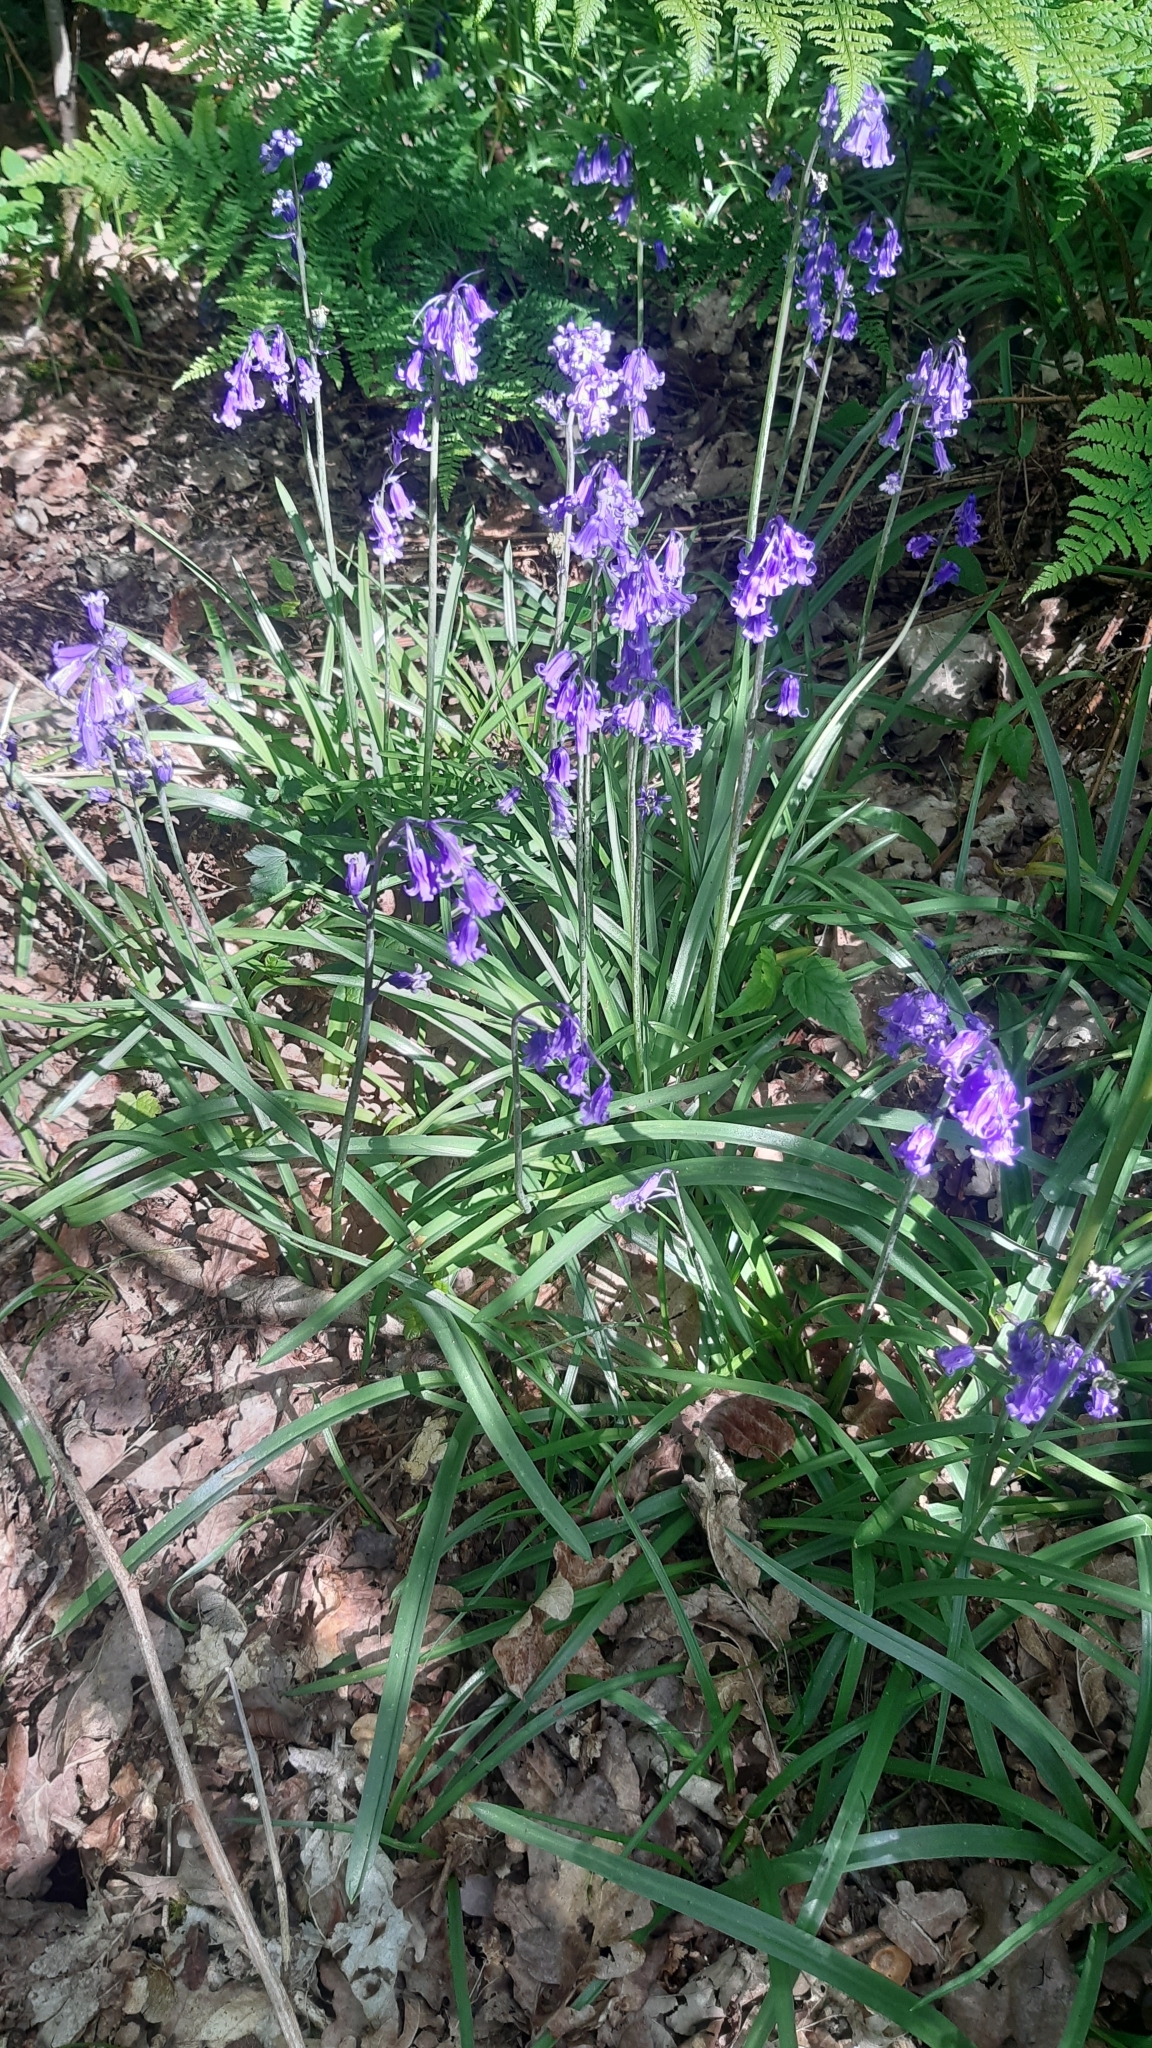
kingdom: Plantae
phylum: Tracheophyta
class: Liliopsida
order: Asparagales
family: Asparagaceae
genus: Hyacinthoides
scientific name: Hyacinthoides non-scripta
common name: Bluebell
